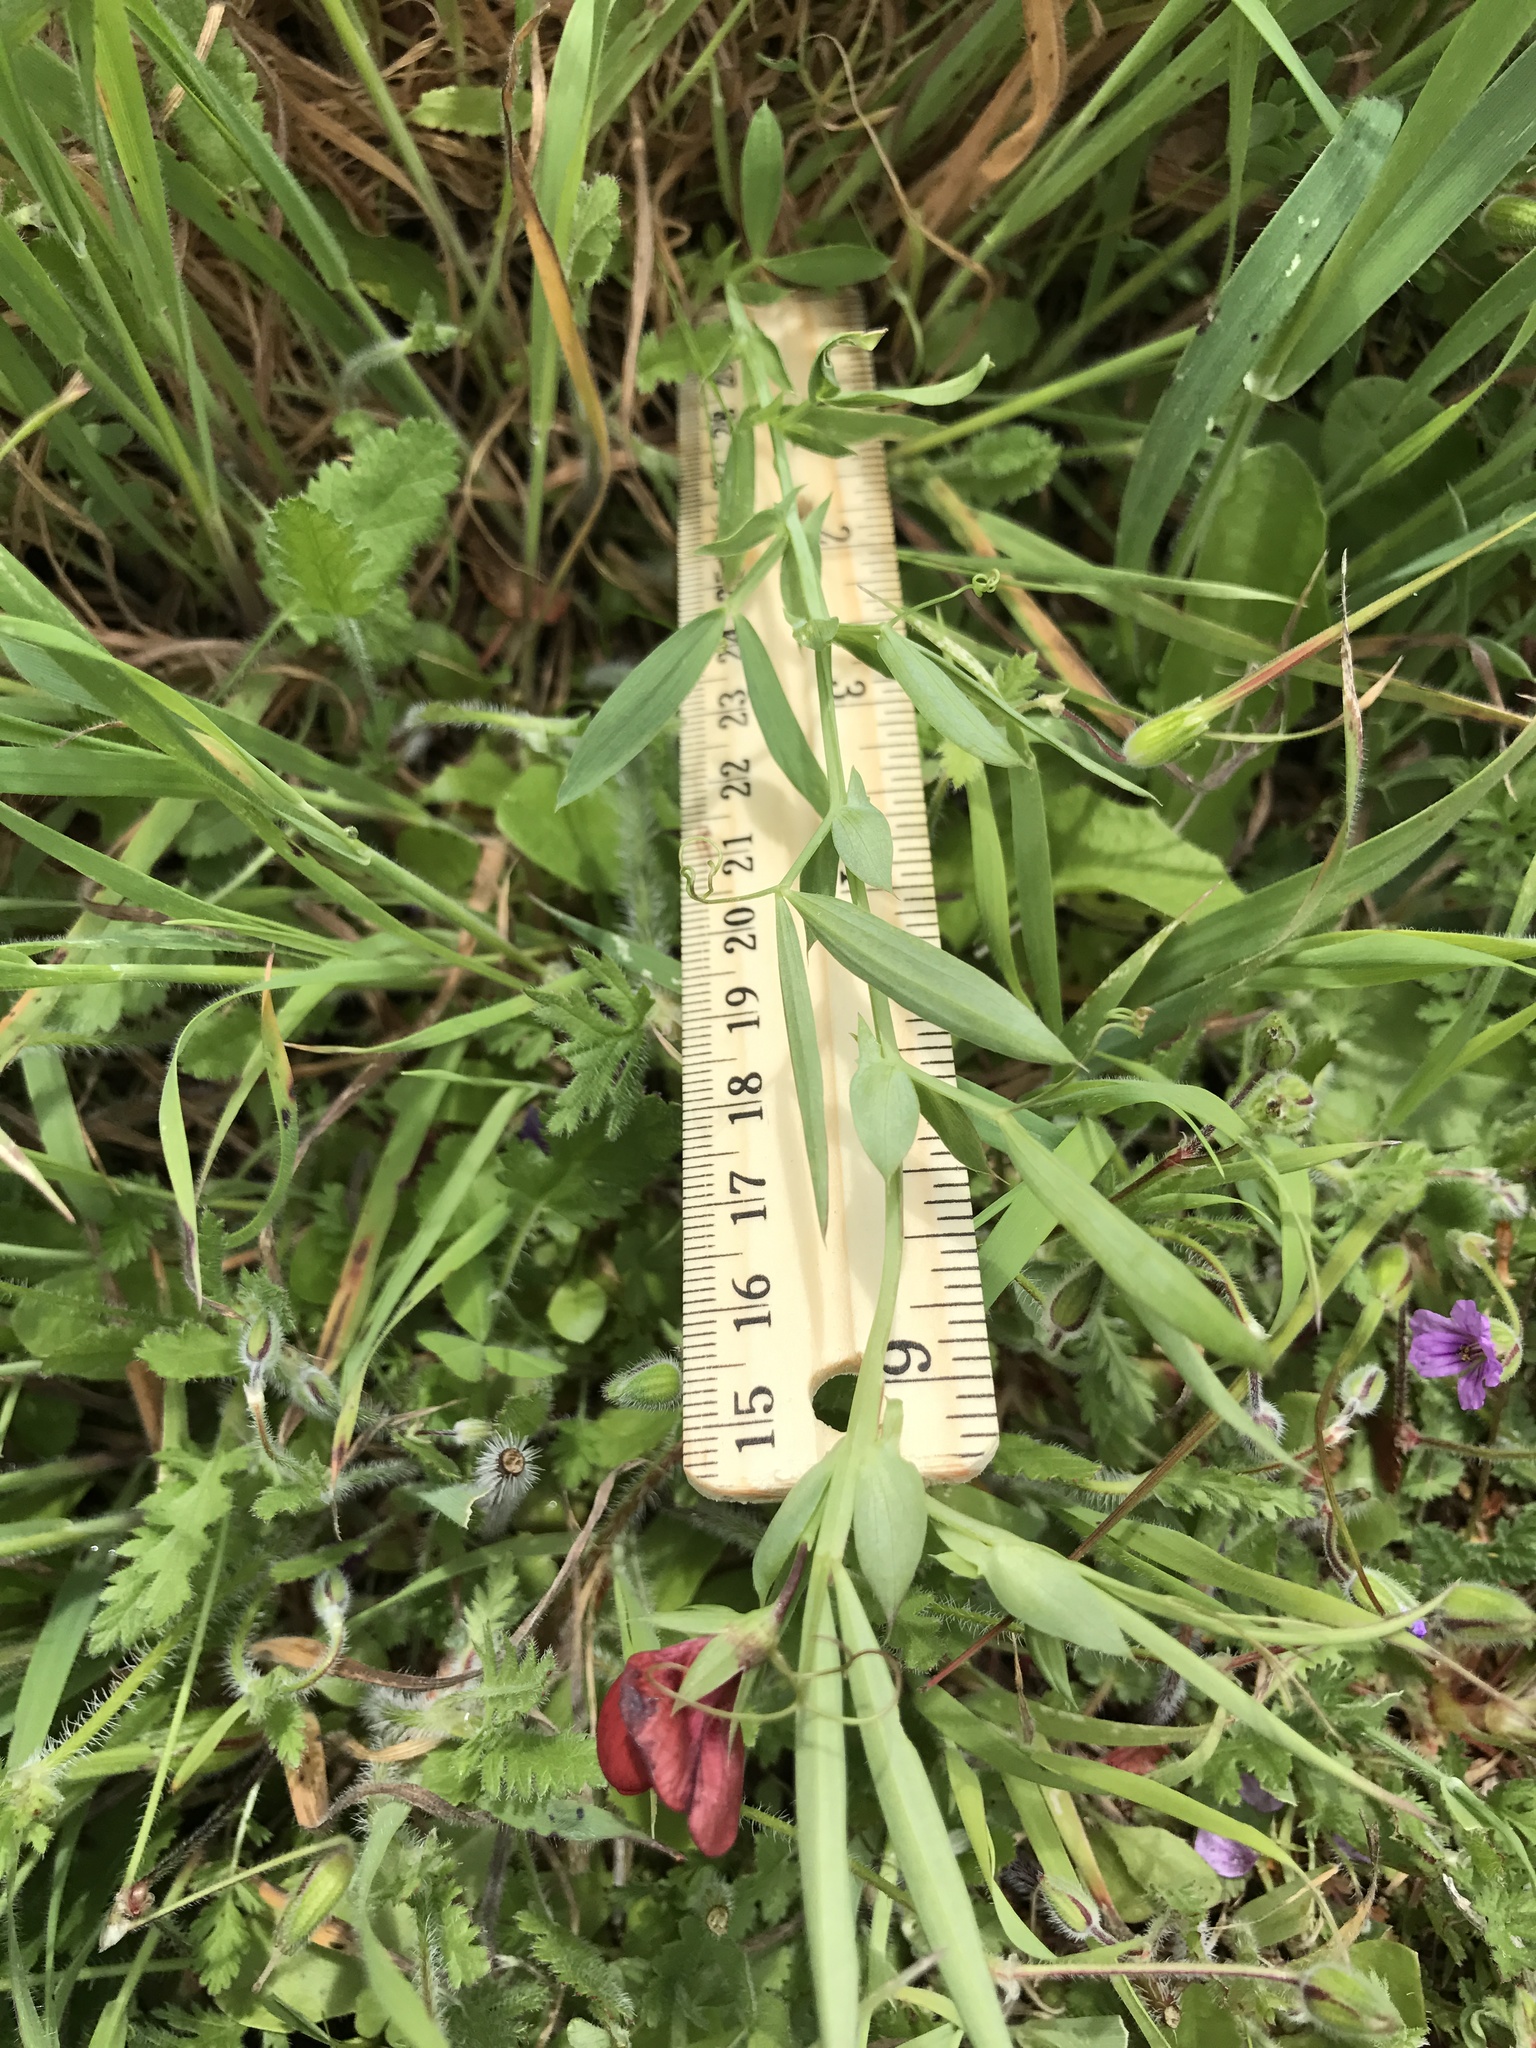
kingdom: Plantae
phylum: Tracheophyta
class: Magnoliopsida
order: Fabales
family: Fabaceae
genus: Lathyrus
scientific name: Lathyrus cicera
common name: Red vetchling
